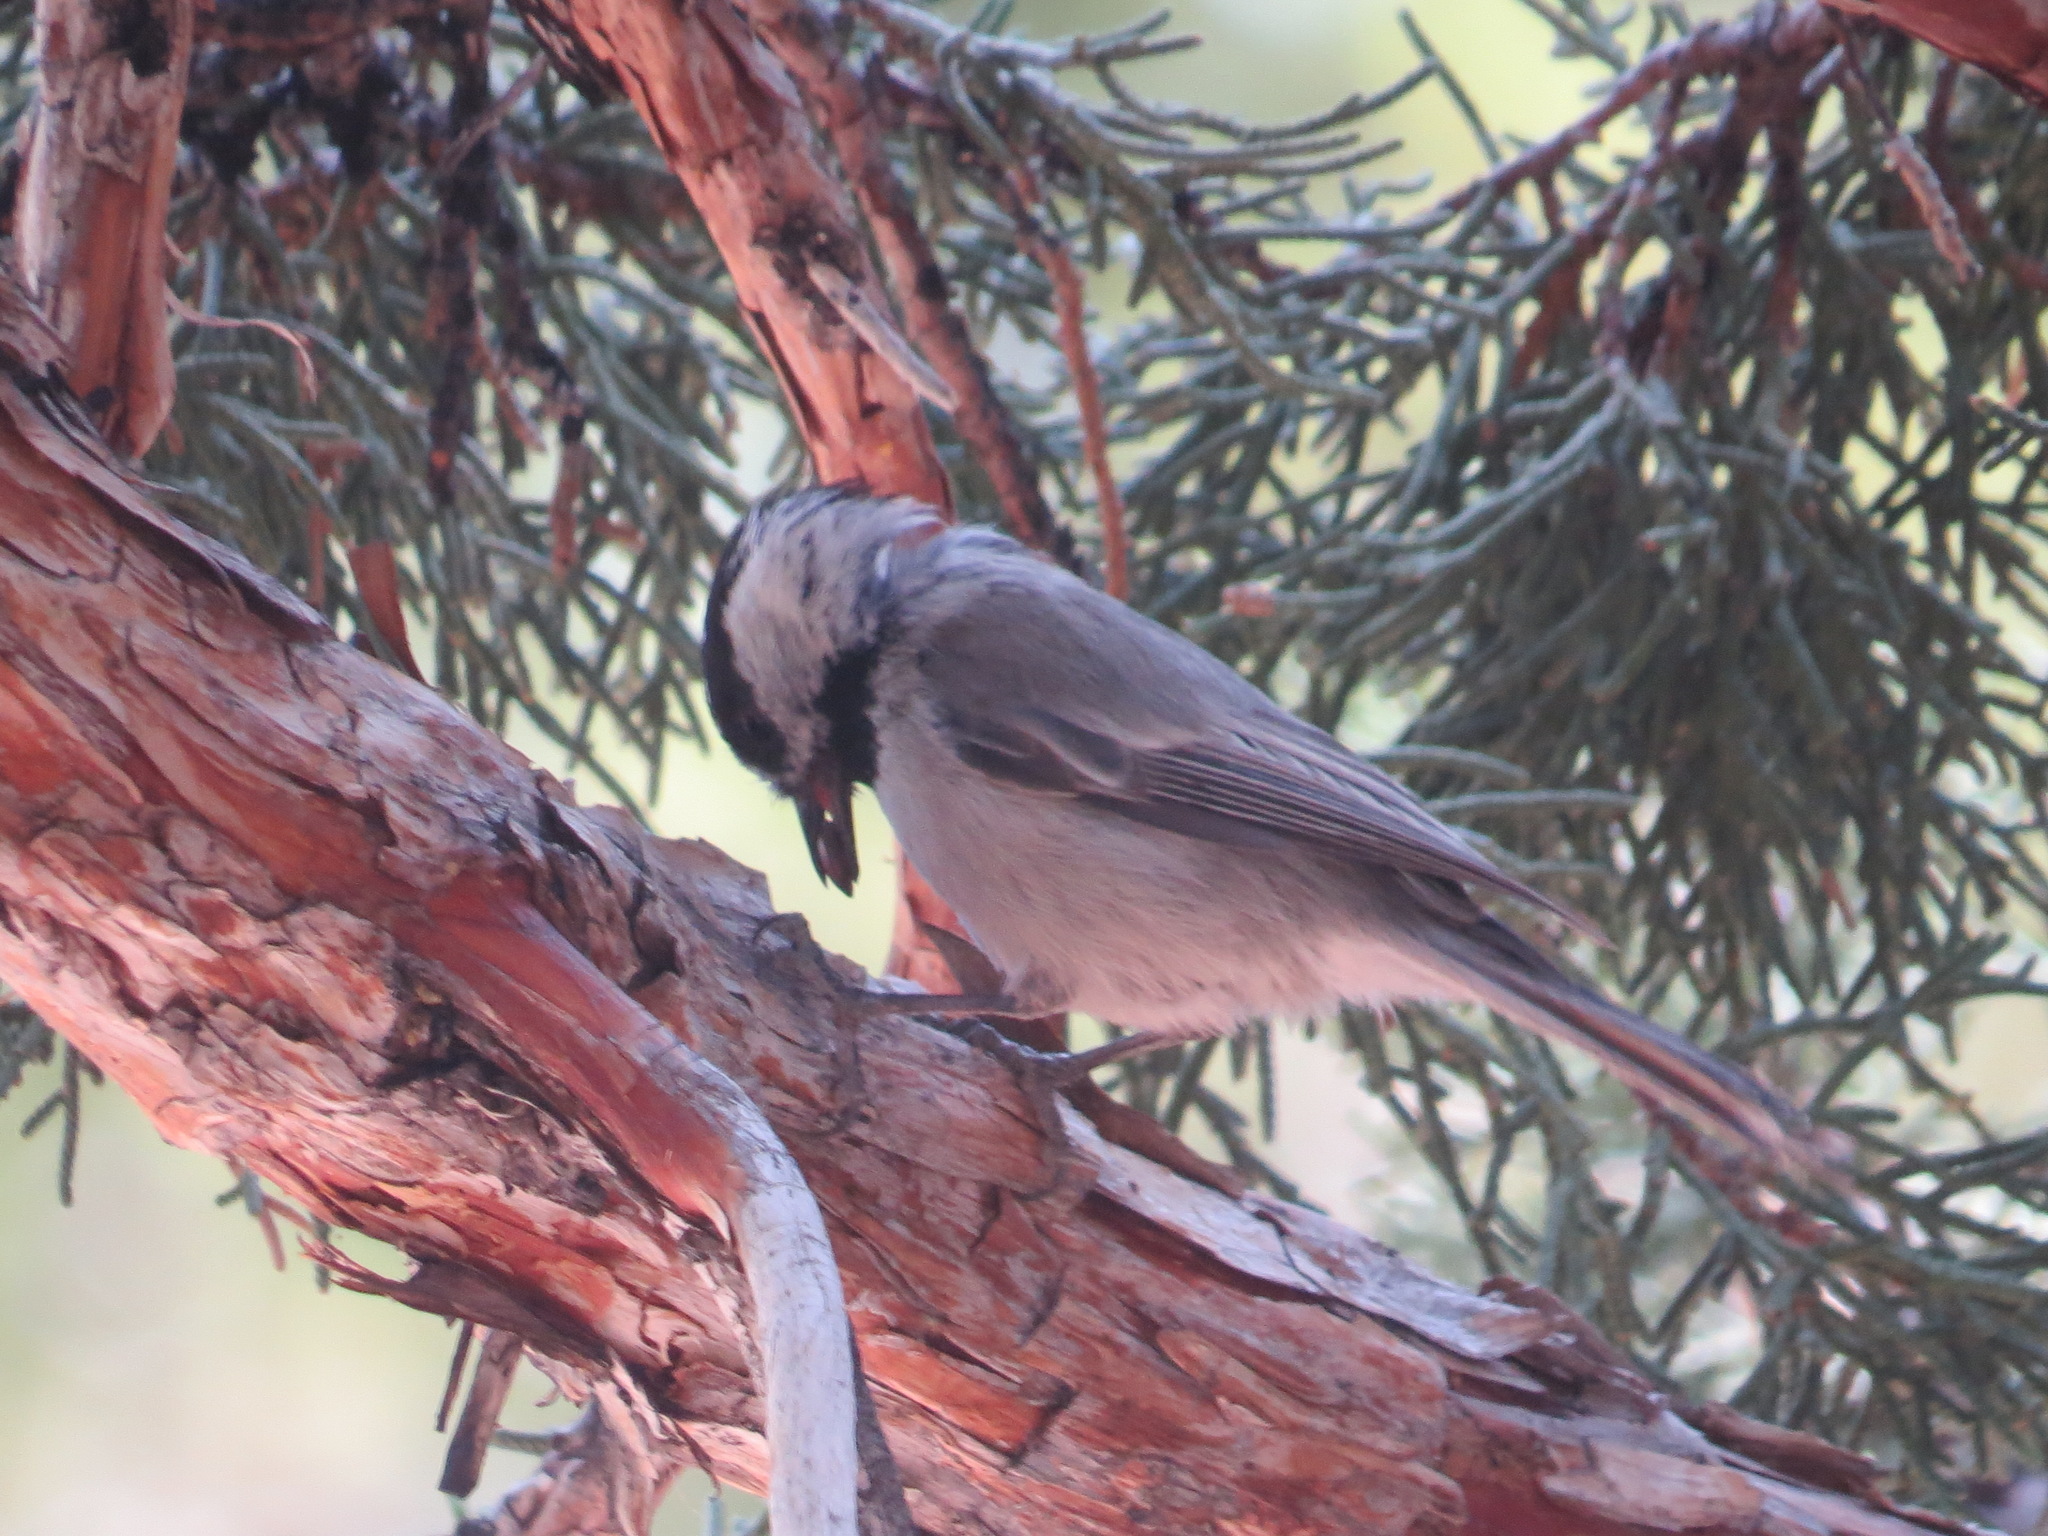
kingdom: Animalia
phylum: Chordata
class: Aves
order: Passeriformes
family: Paridae
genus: Poecile
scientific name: Poecile gambeli
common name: Mountain chickadee
